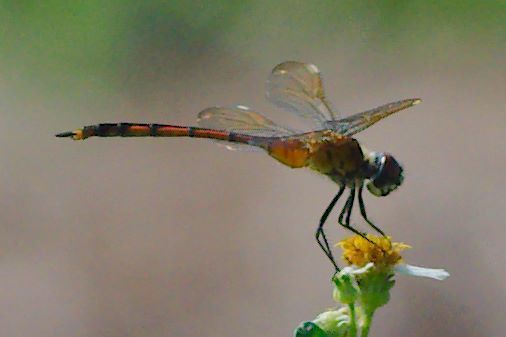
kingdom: Animalia
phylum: Arthropoda
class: Insecta
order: Odonata
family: Libellulidae
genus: Brachymesia
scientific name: Brachymesia gravida
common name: Four-spotted pennant
